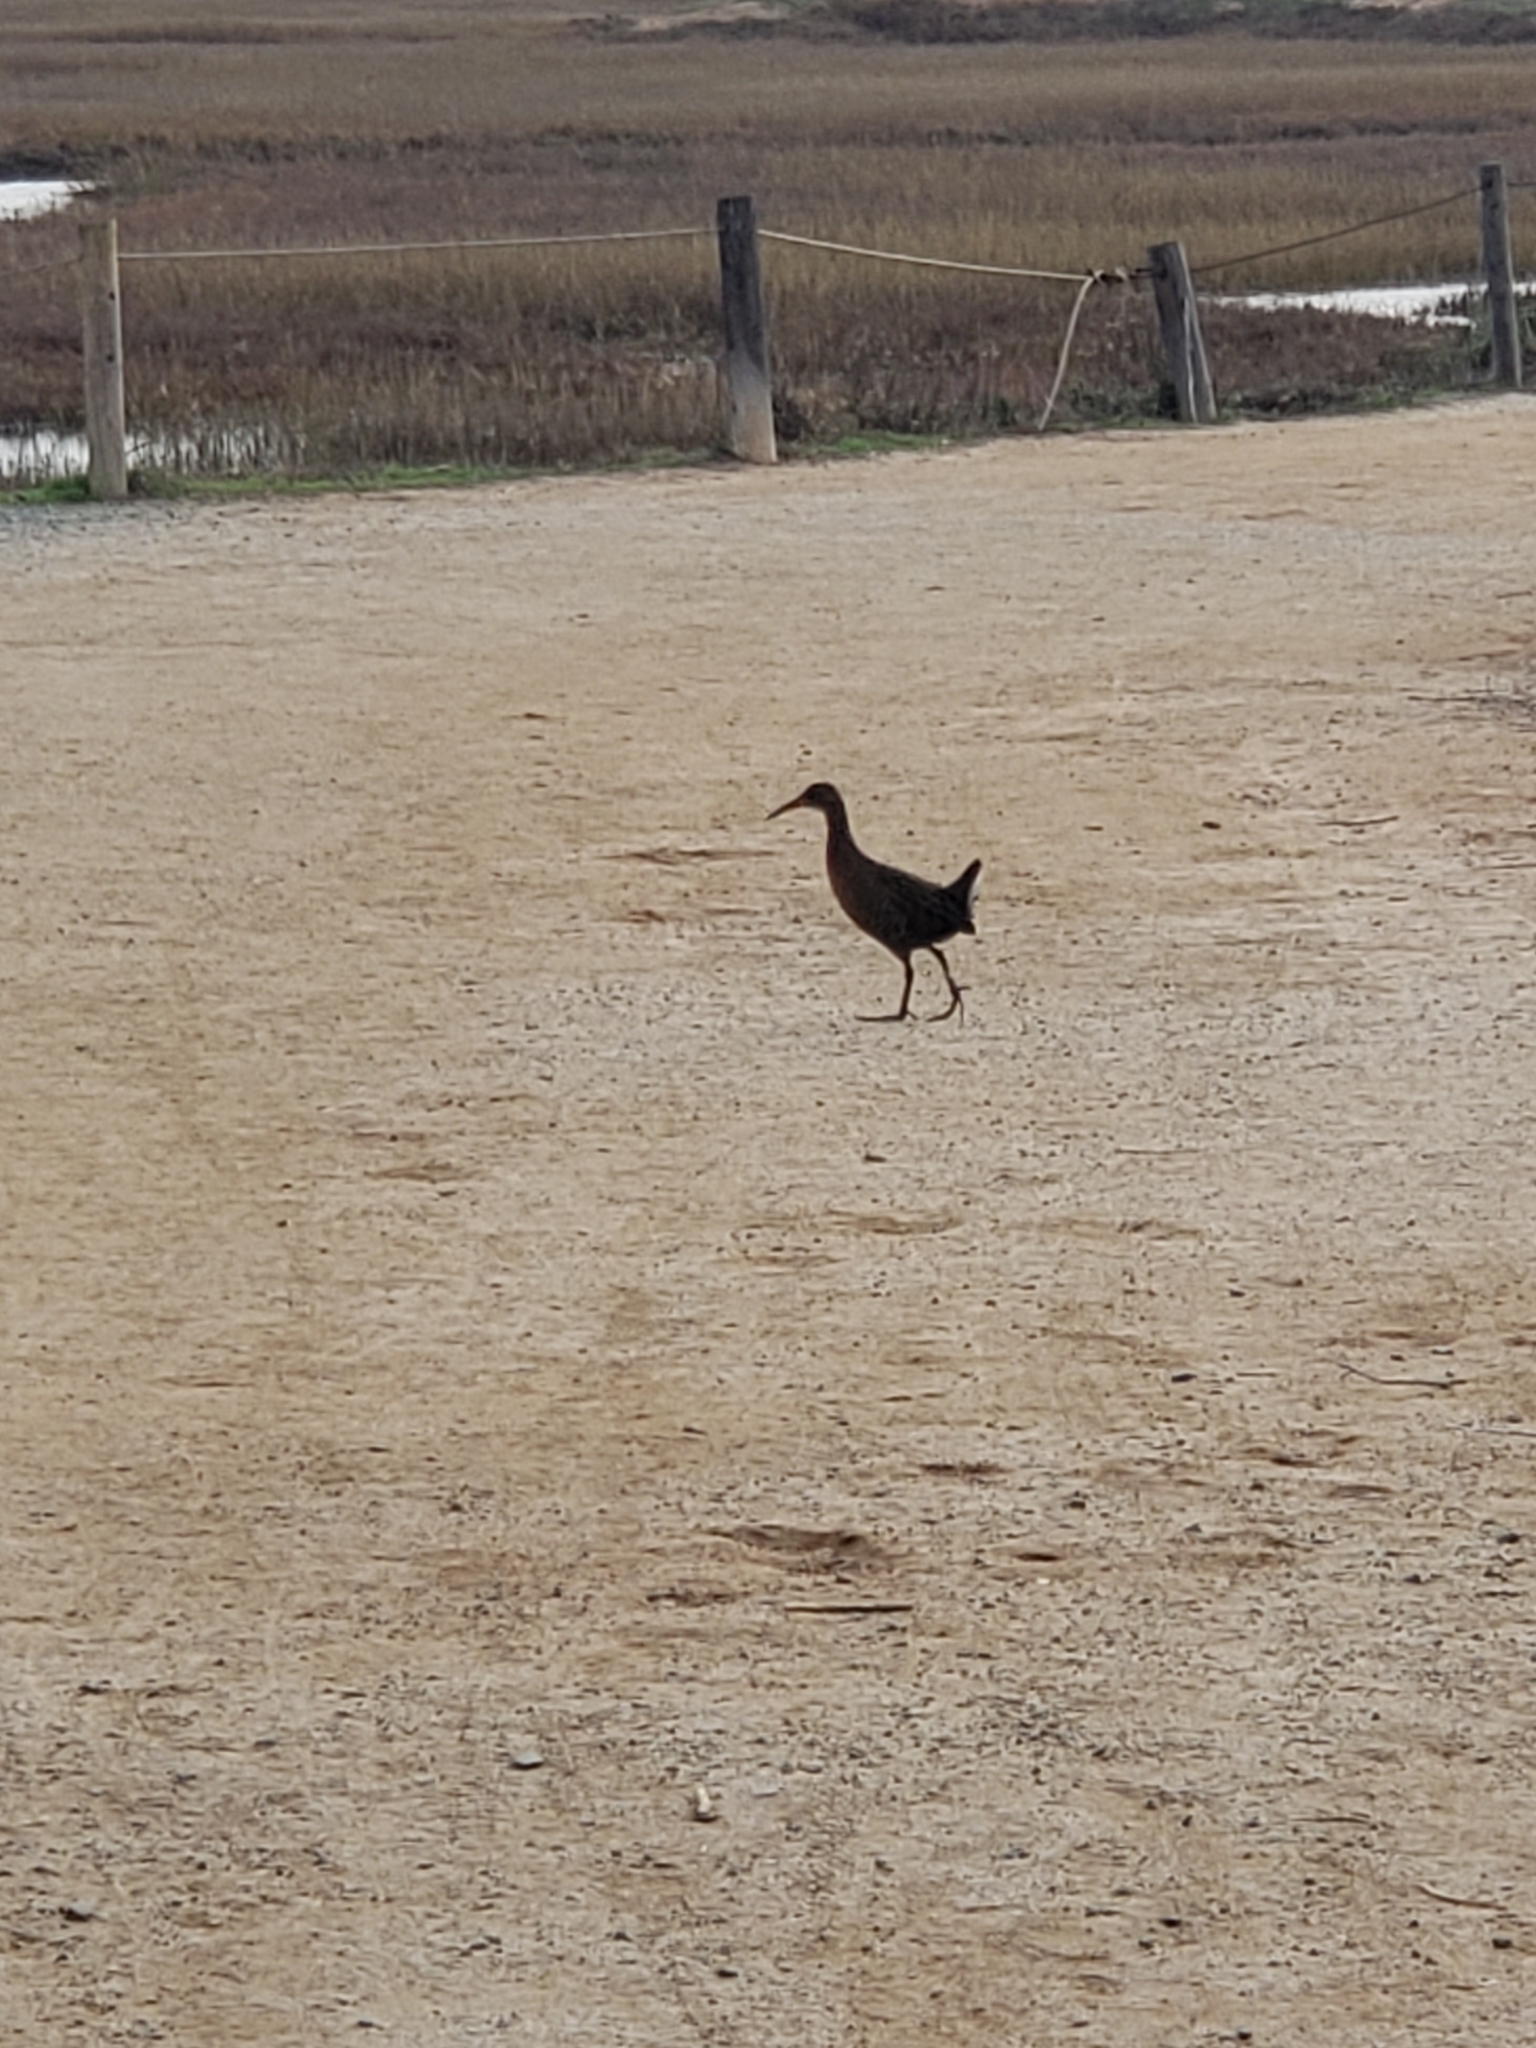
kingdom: Animalia
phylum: Chordata
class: Aves
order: Gruiformes
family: Rallidae
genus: Rallus
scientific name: Rallus obsoletus
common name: Ridgway's rail
